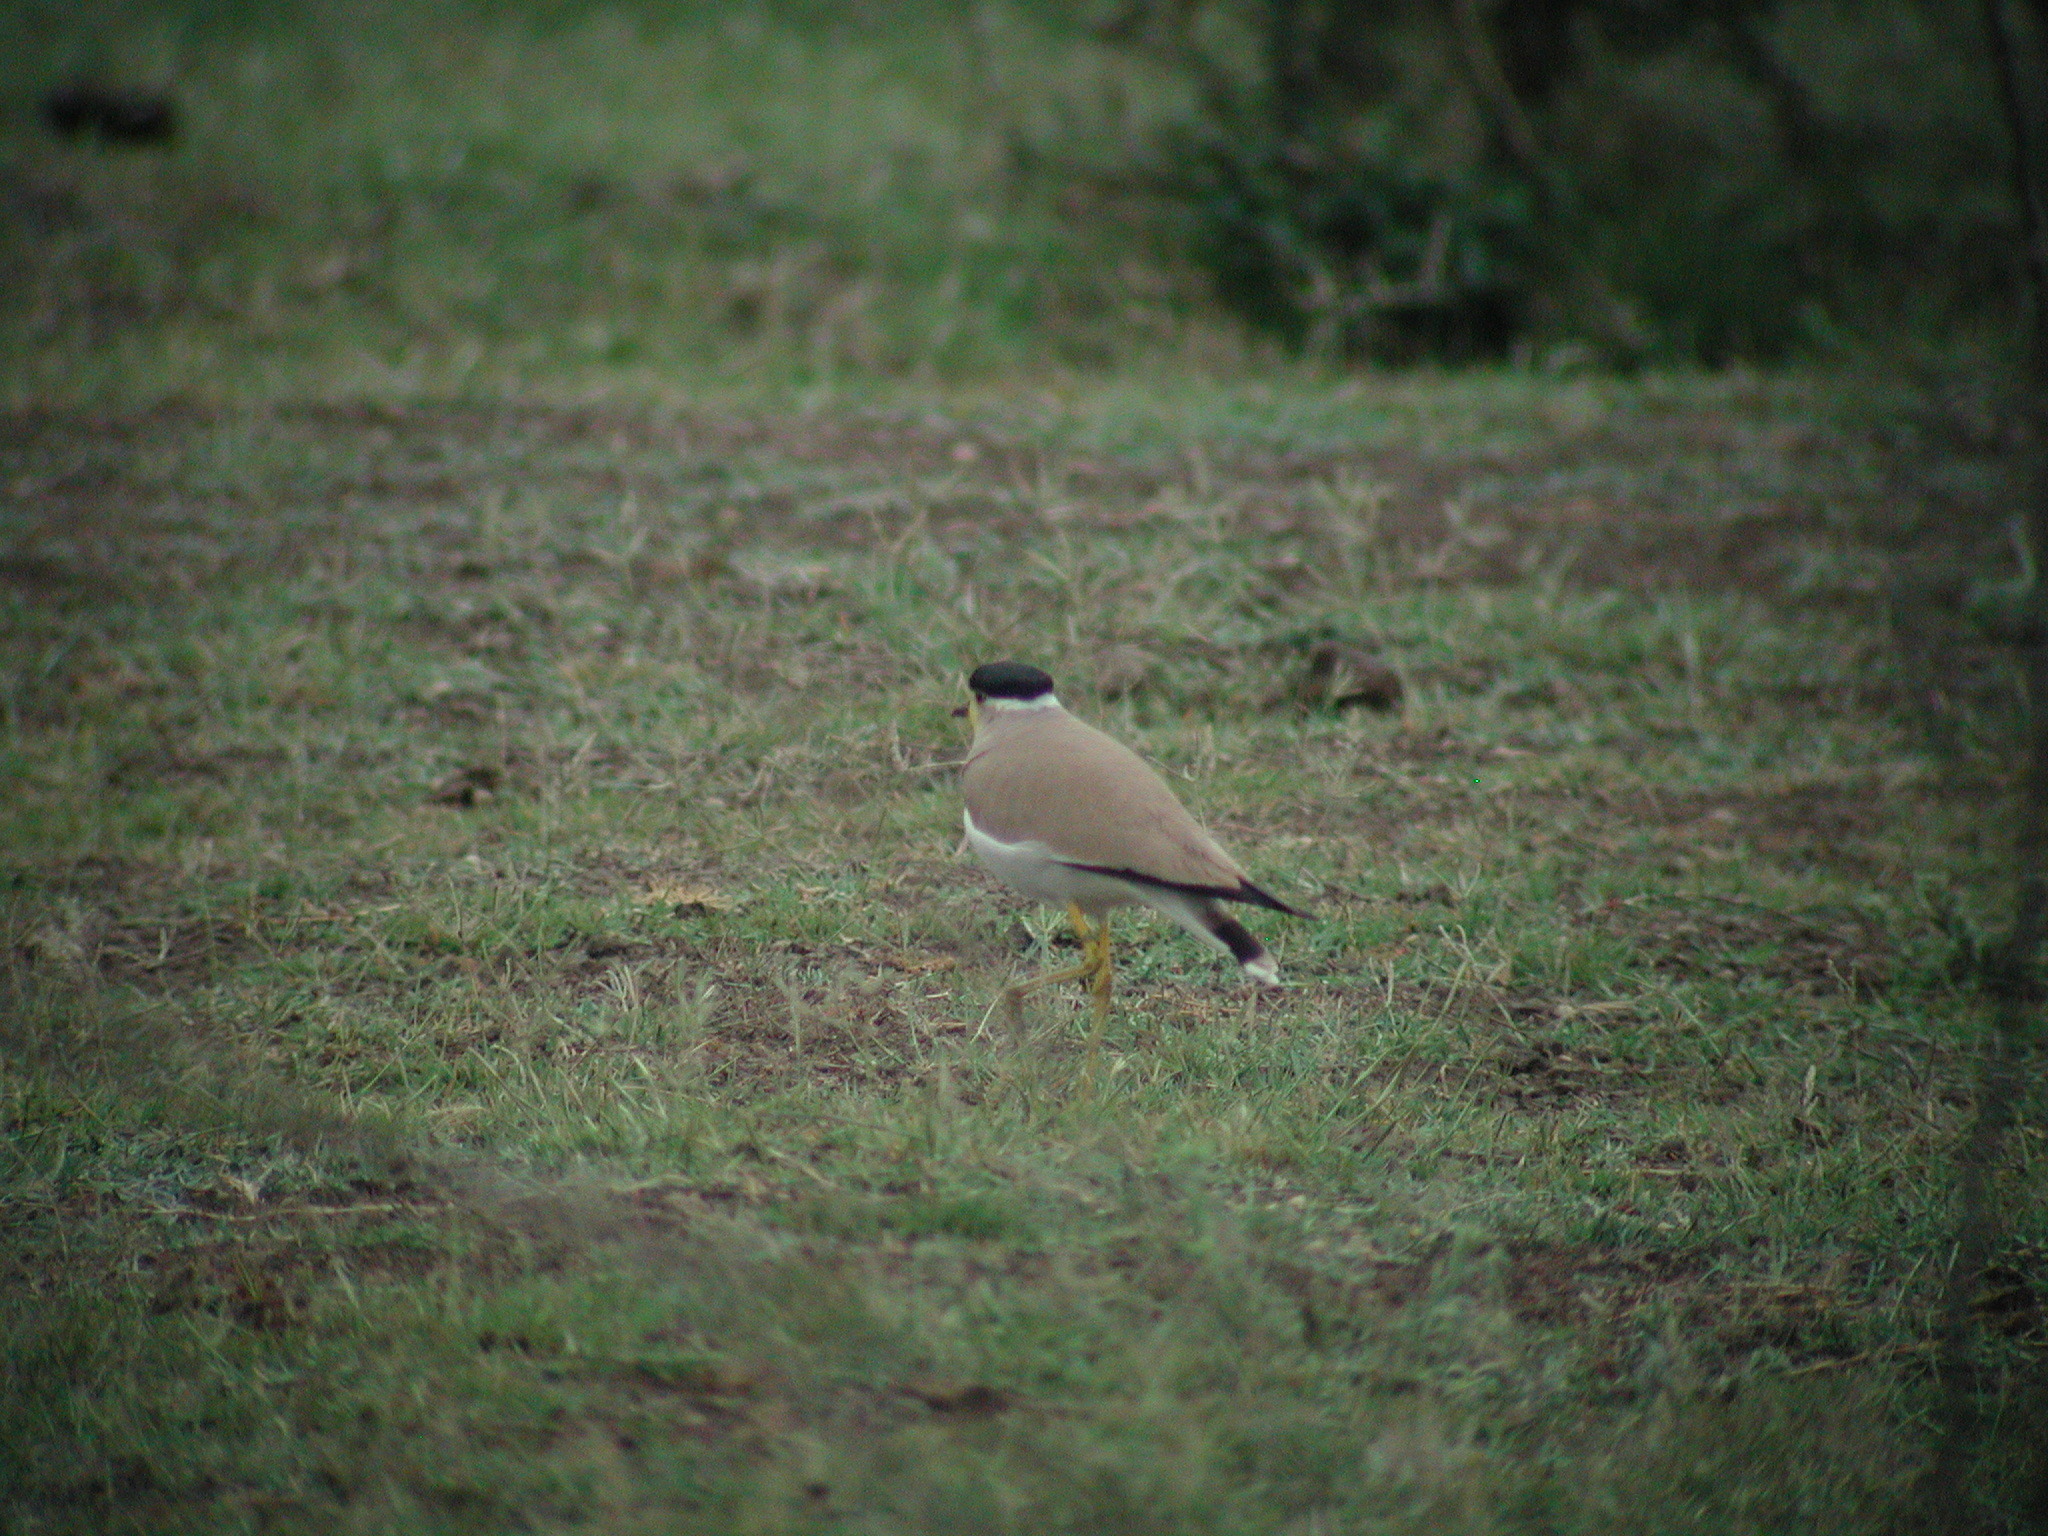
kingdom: Animalia
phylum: Chordata
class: Aves
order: Charadriiformes
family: Charadriidae
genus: Vanellus
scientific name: Vanellus malabaricus
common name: Yellow-wattled lapwing
